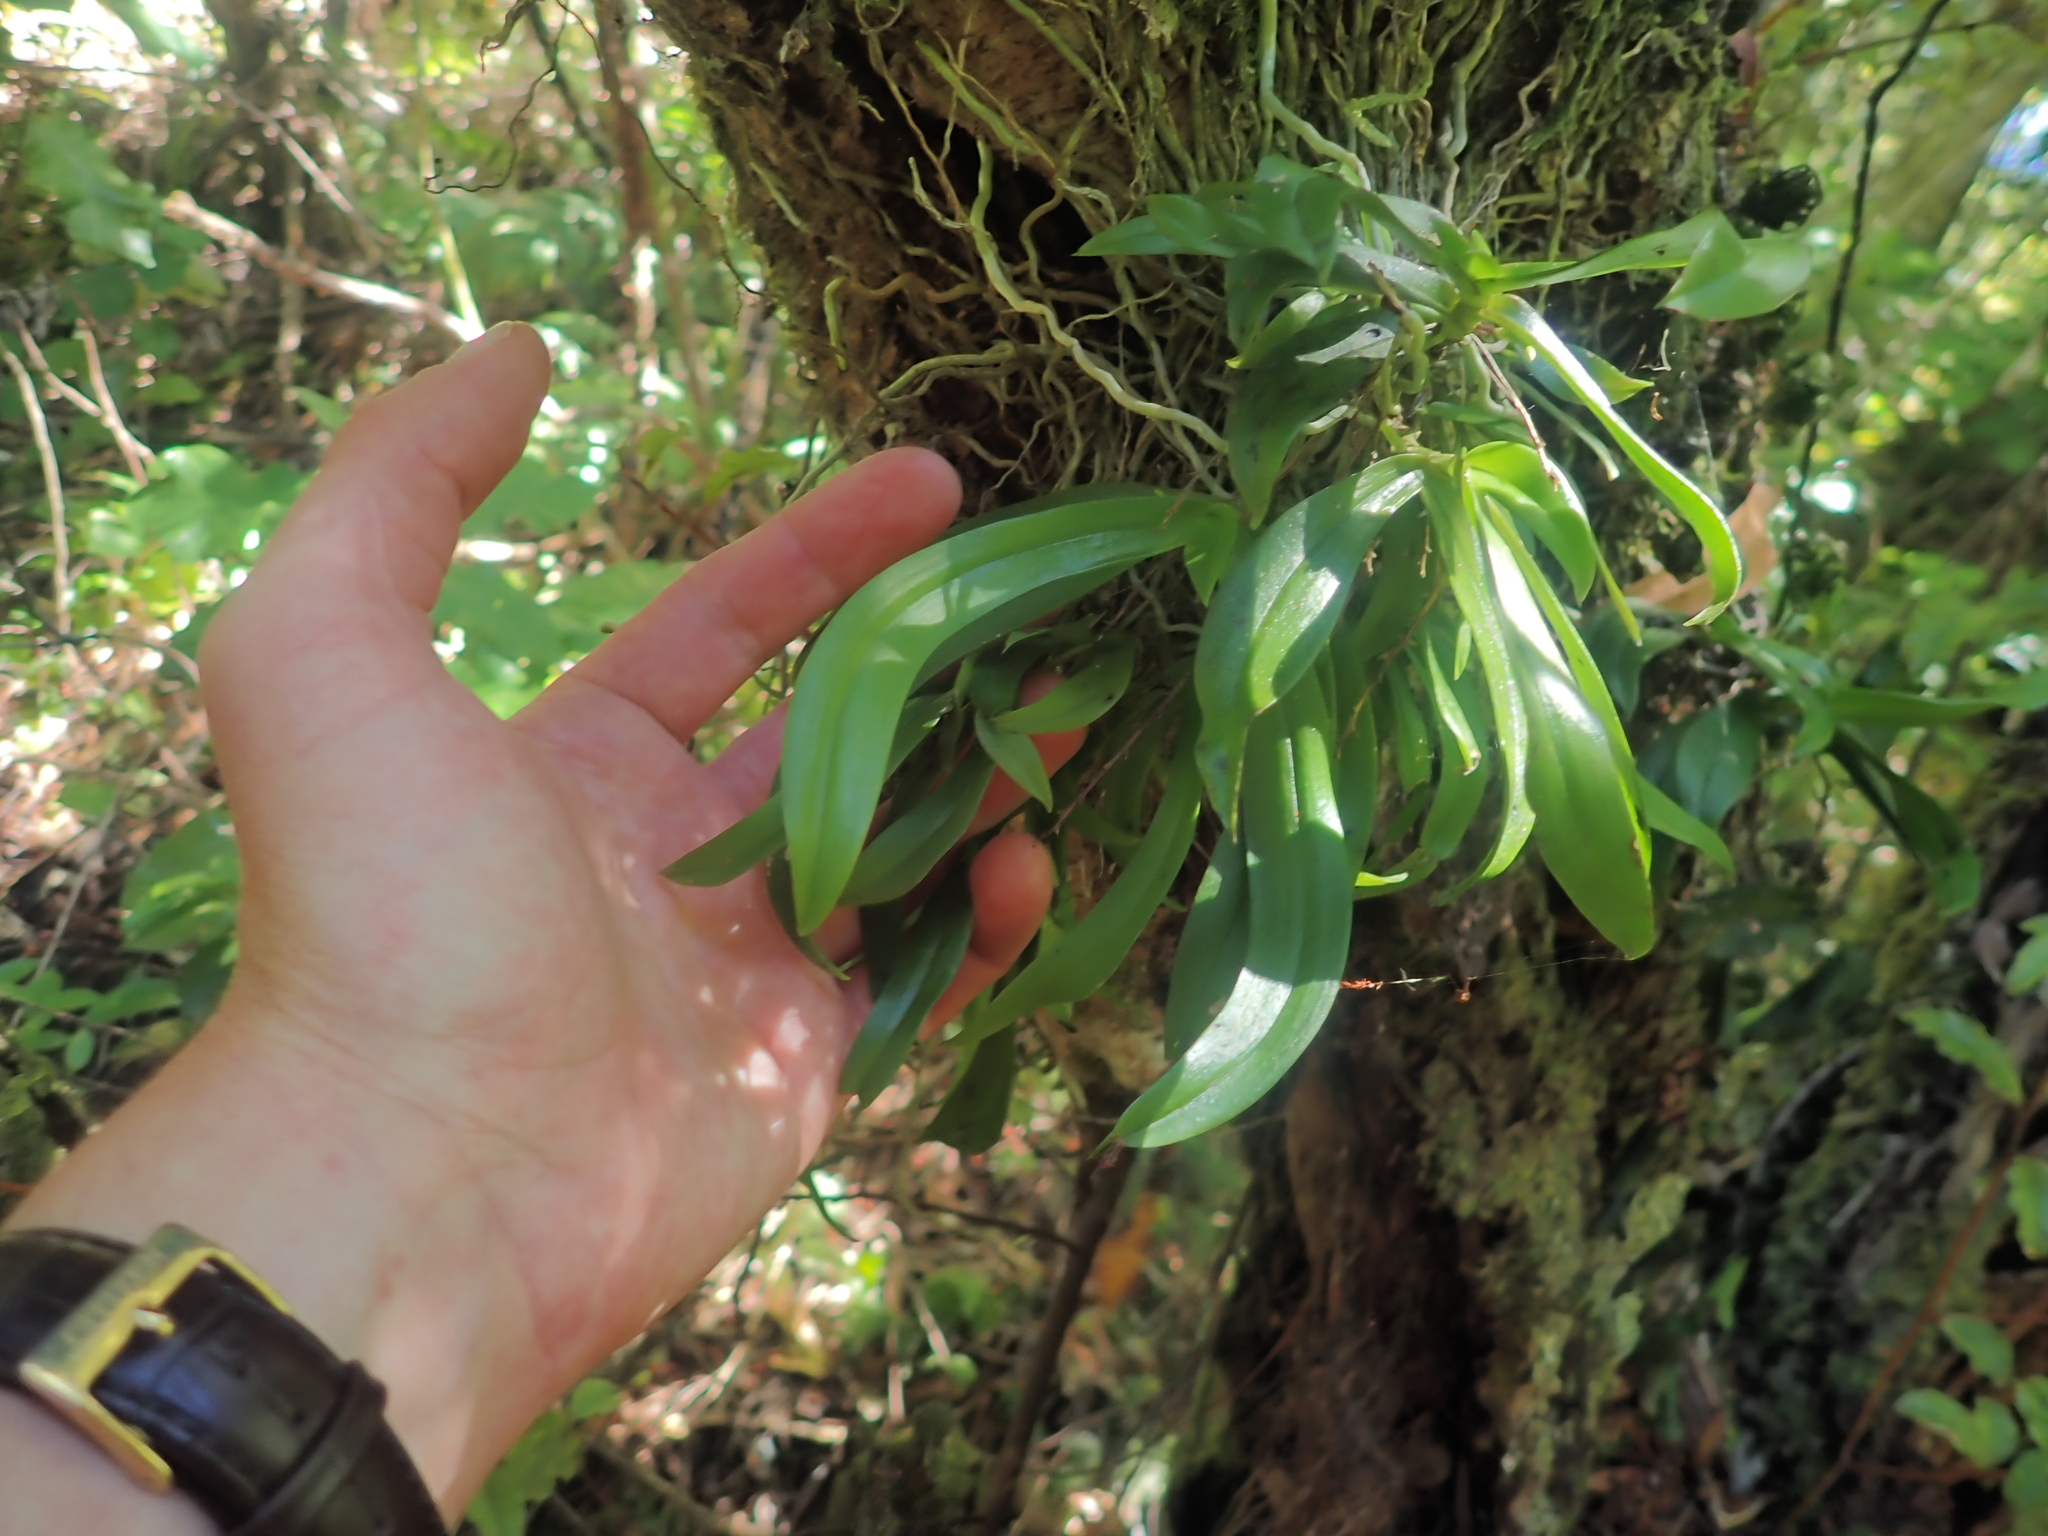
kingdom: Plantae
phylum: Tracheophyta
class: Liliopsida
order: Asparagales
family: Orchidaceae
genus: Drymoanthus
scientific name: Drymoanthus adversus
